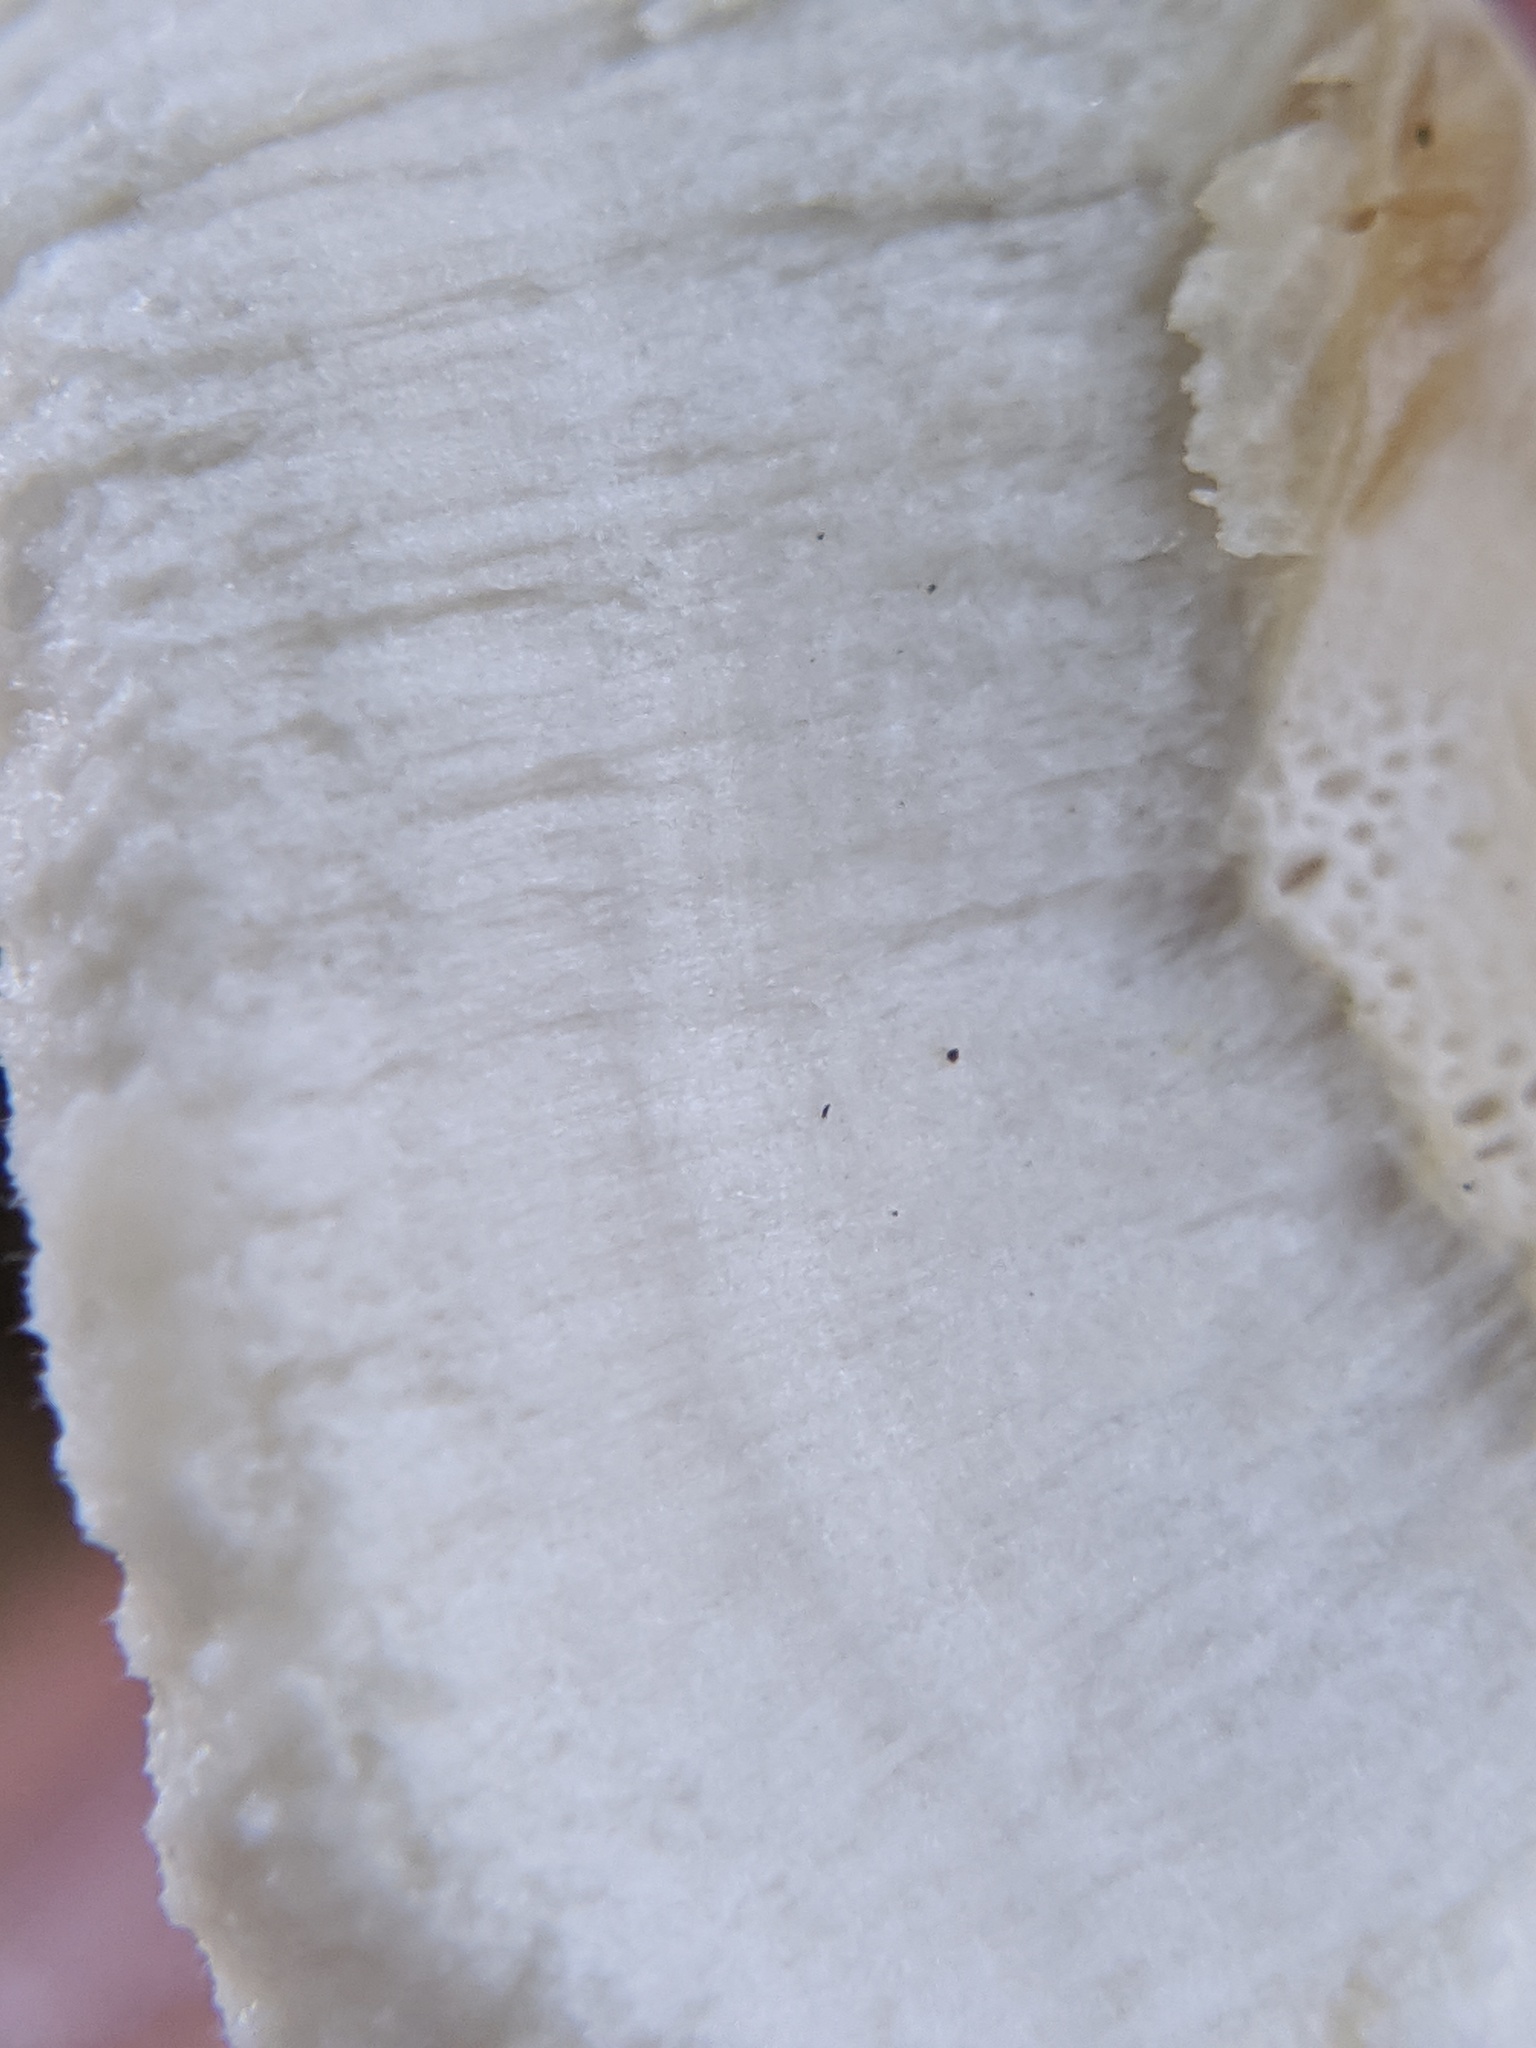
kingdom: Fungi
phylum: Basidiomycota
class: Agaricomycetes
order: Russulales
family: Bondarzewiaceae
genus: Bondarzewia
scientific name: Bondarzewia berkeleyi
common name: Berkeley's polypore
